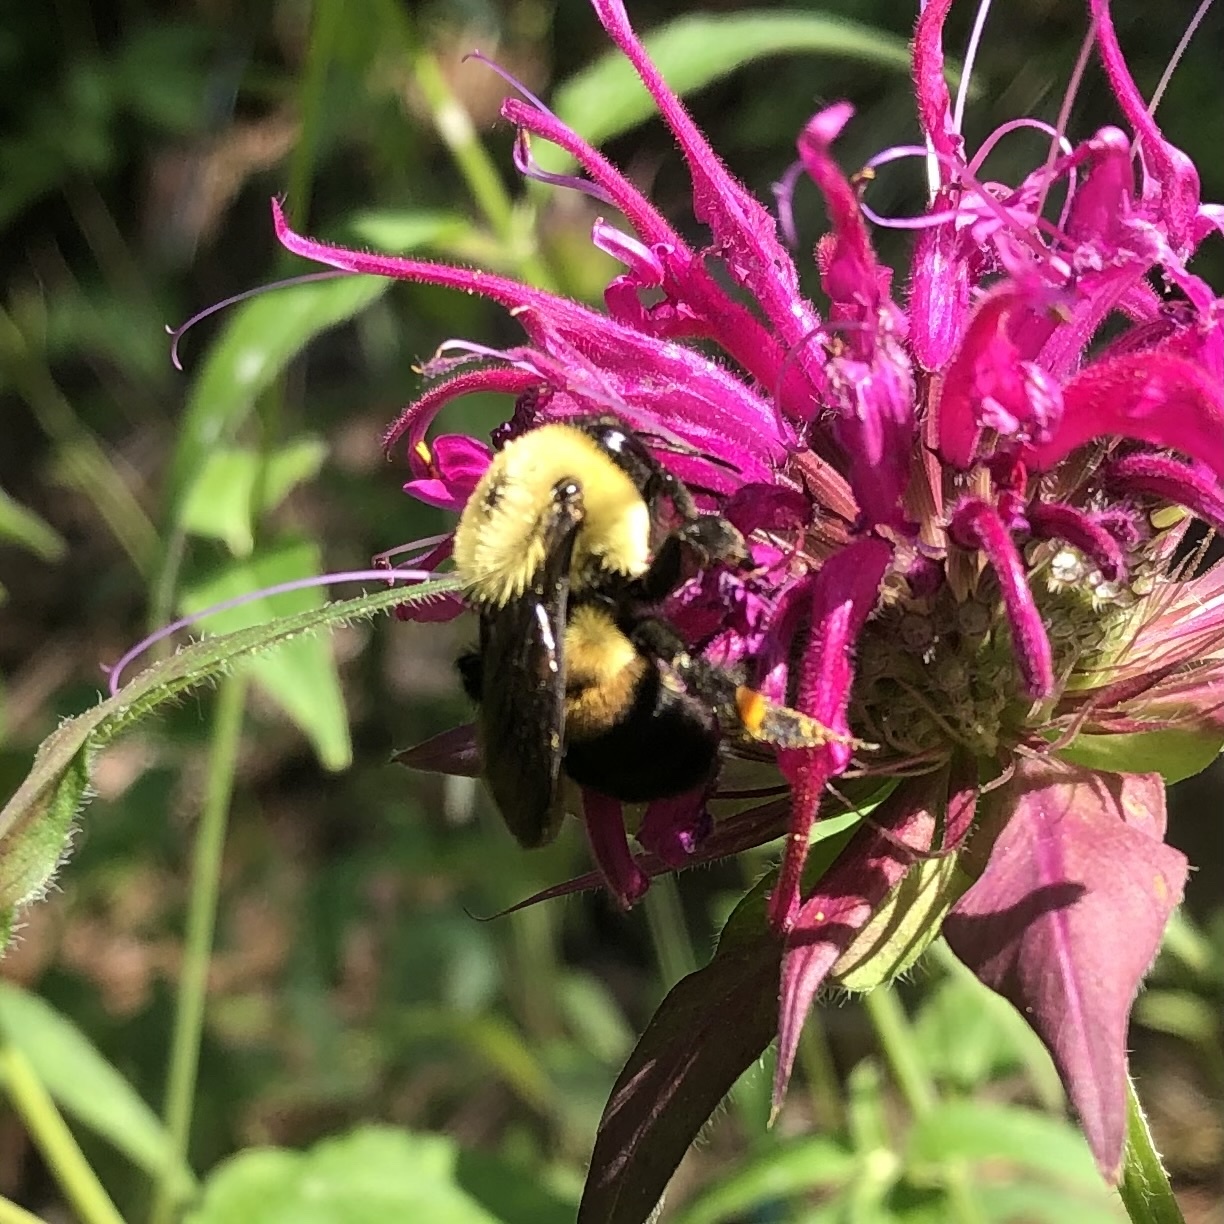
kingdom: Animalia
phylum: Arthropoda
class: Insecta
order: Hymenoptera
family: Apidae
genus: Bombus
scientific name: Bombus griseocollis
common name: Brown-belted bumble bee
